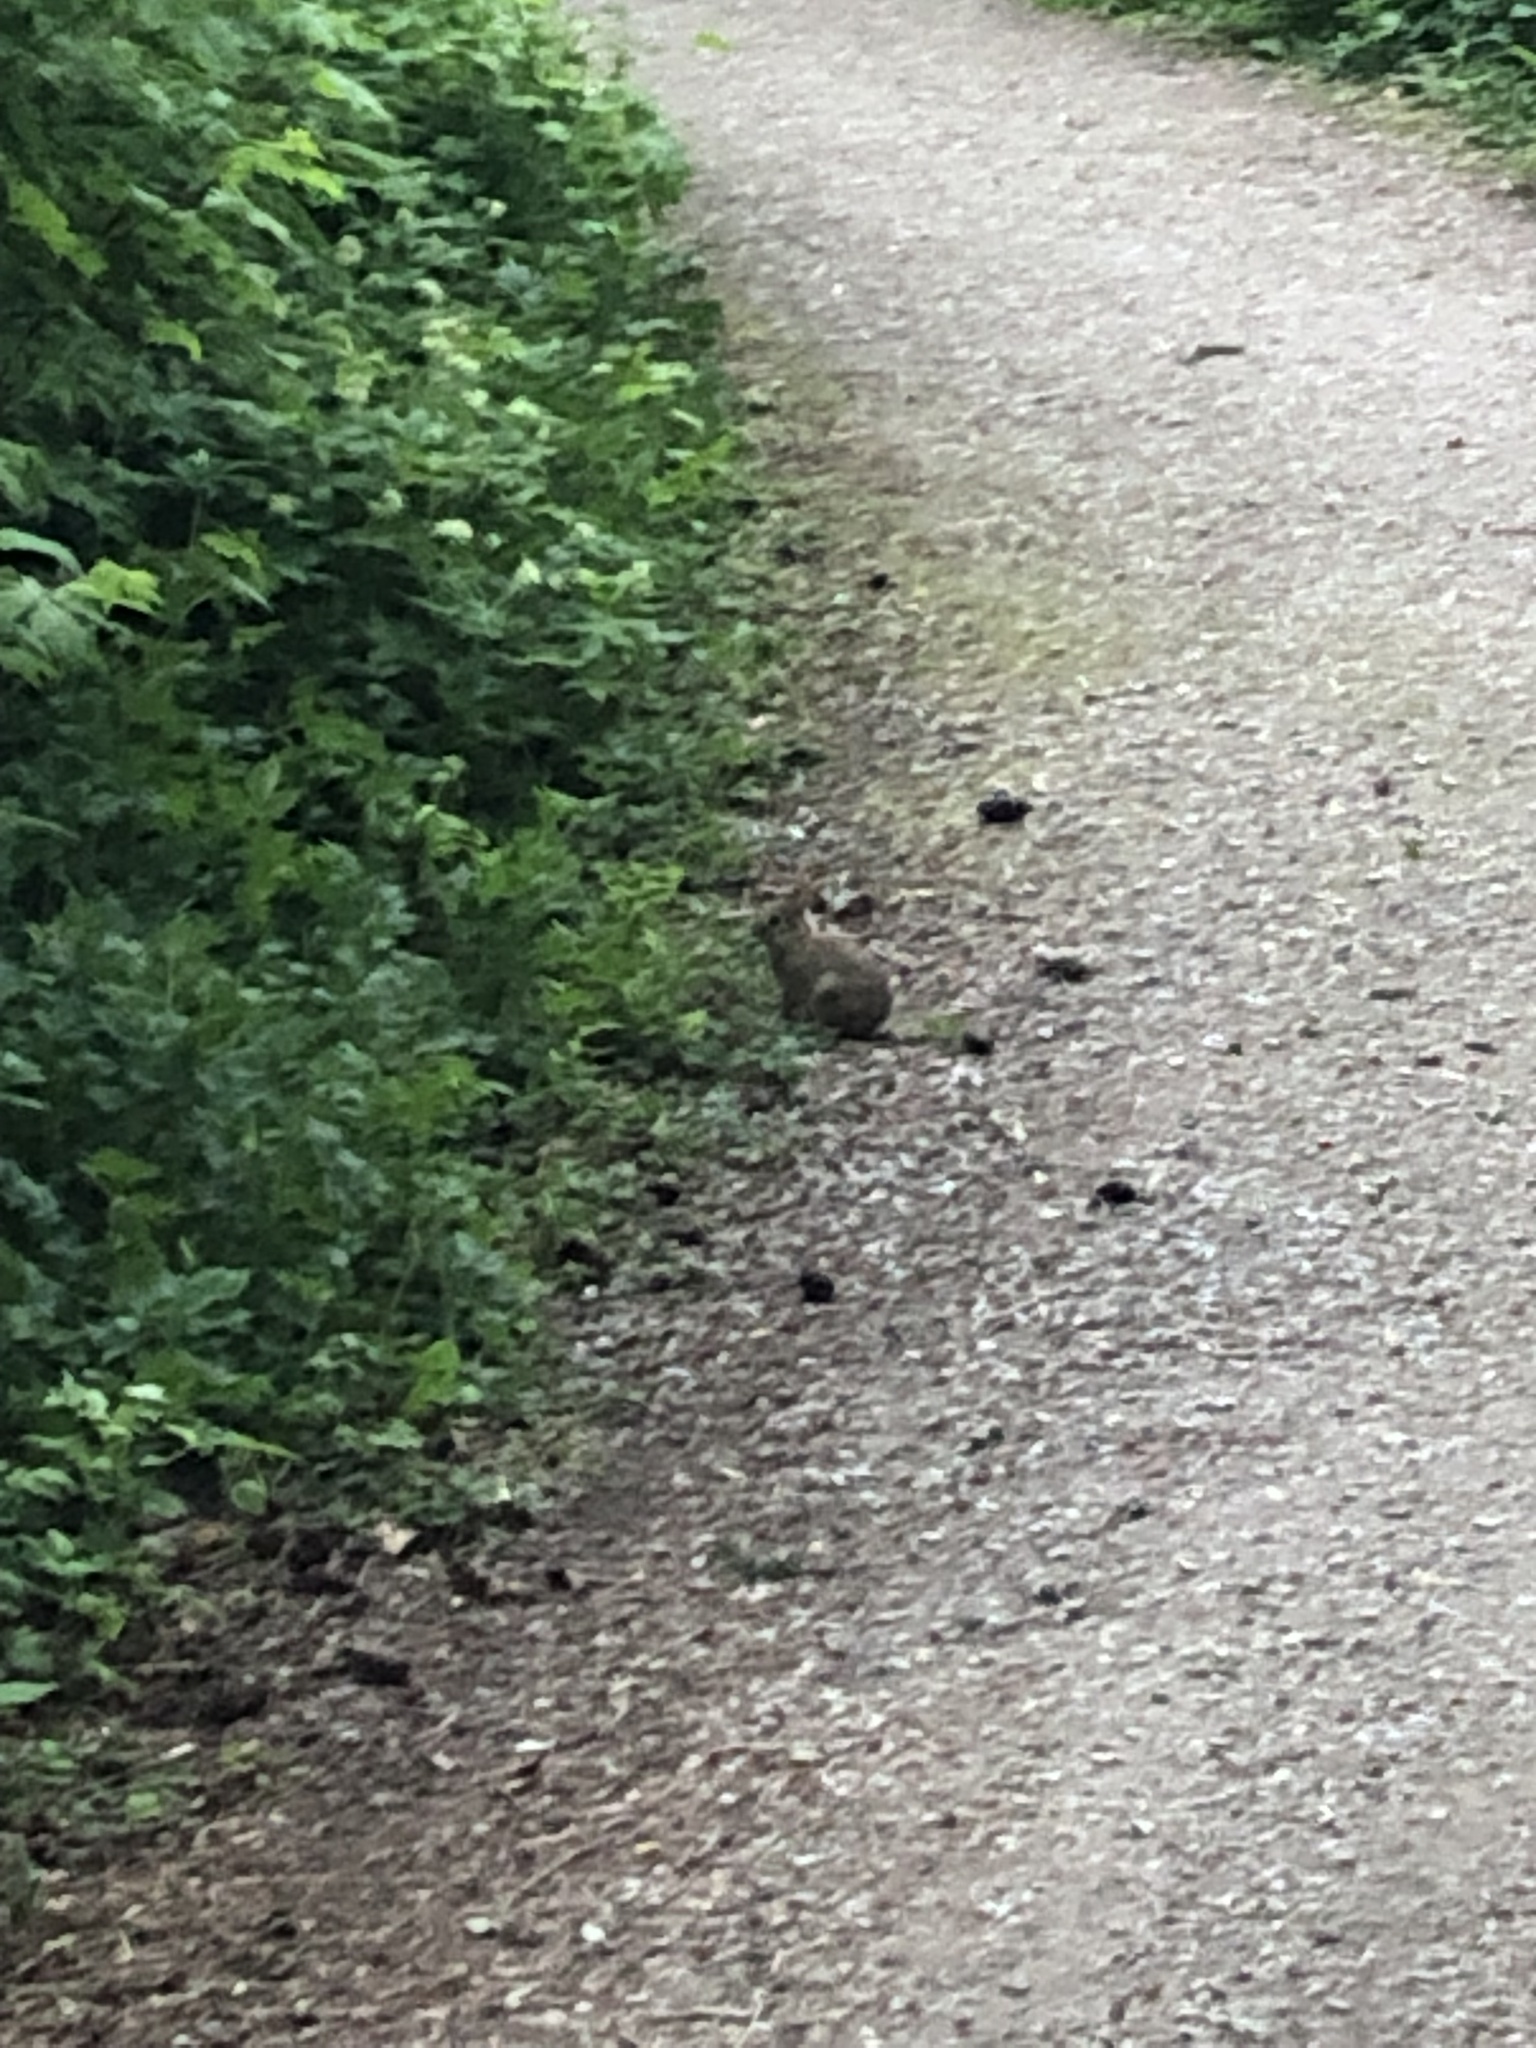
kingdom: Animalia
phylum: Chordata
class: Mammalia
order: Lagomorpha
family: Leporidae
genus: Sylvilagus
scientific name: Sylvilagus floridanus
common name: Eastern cottontail
